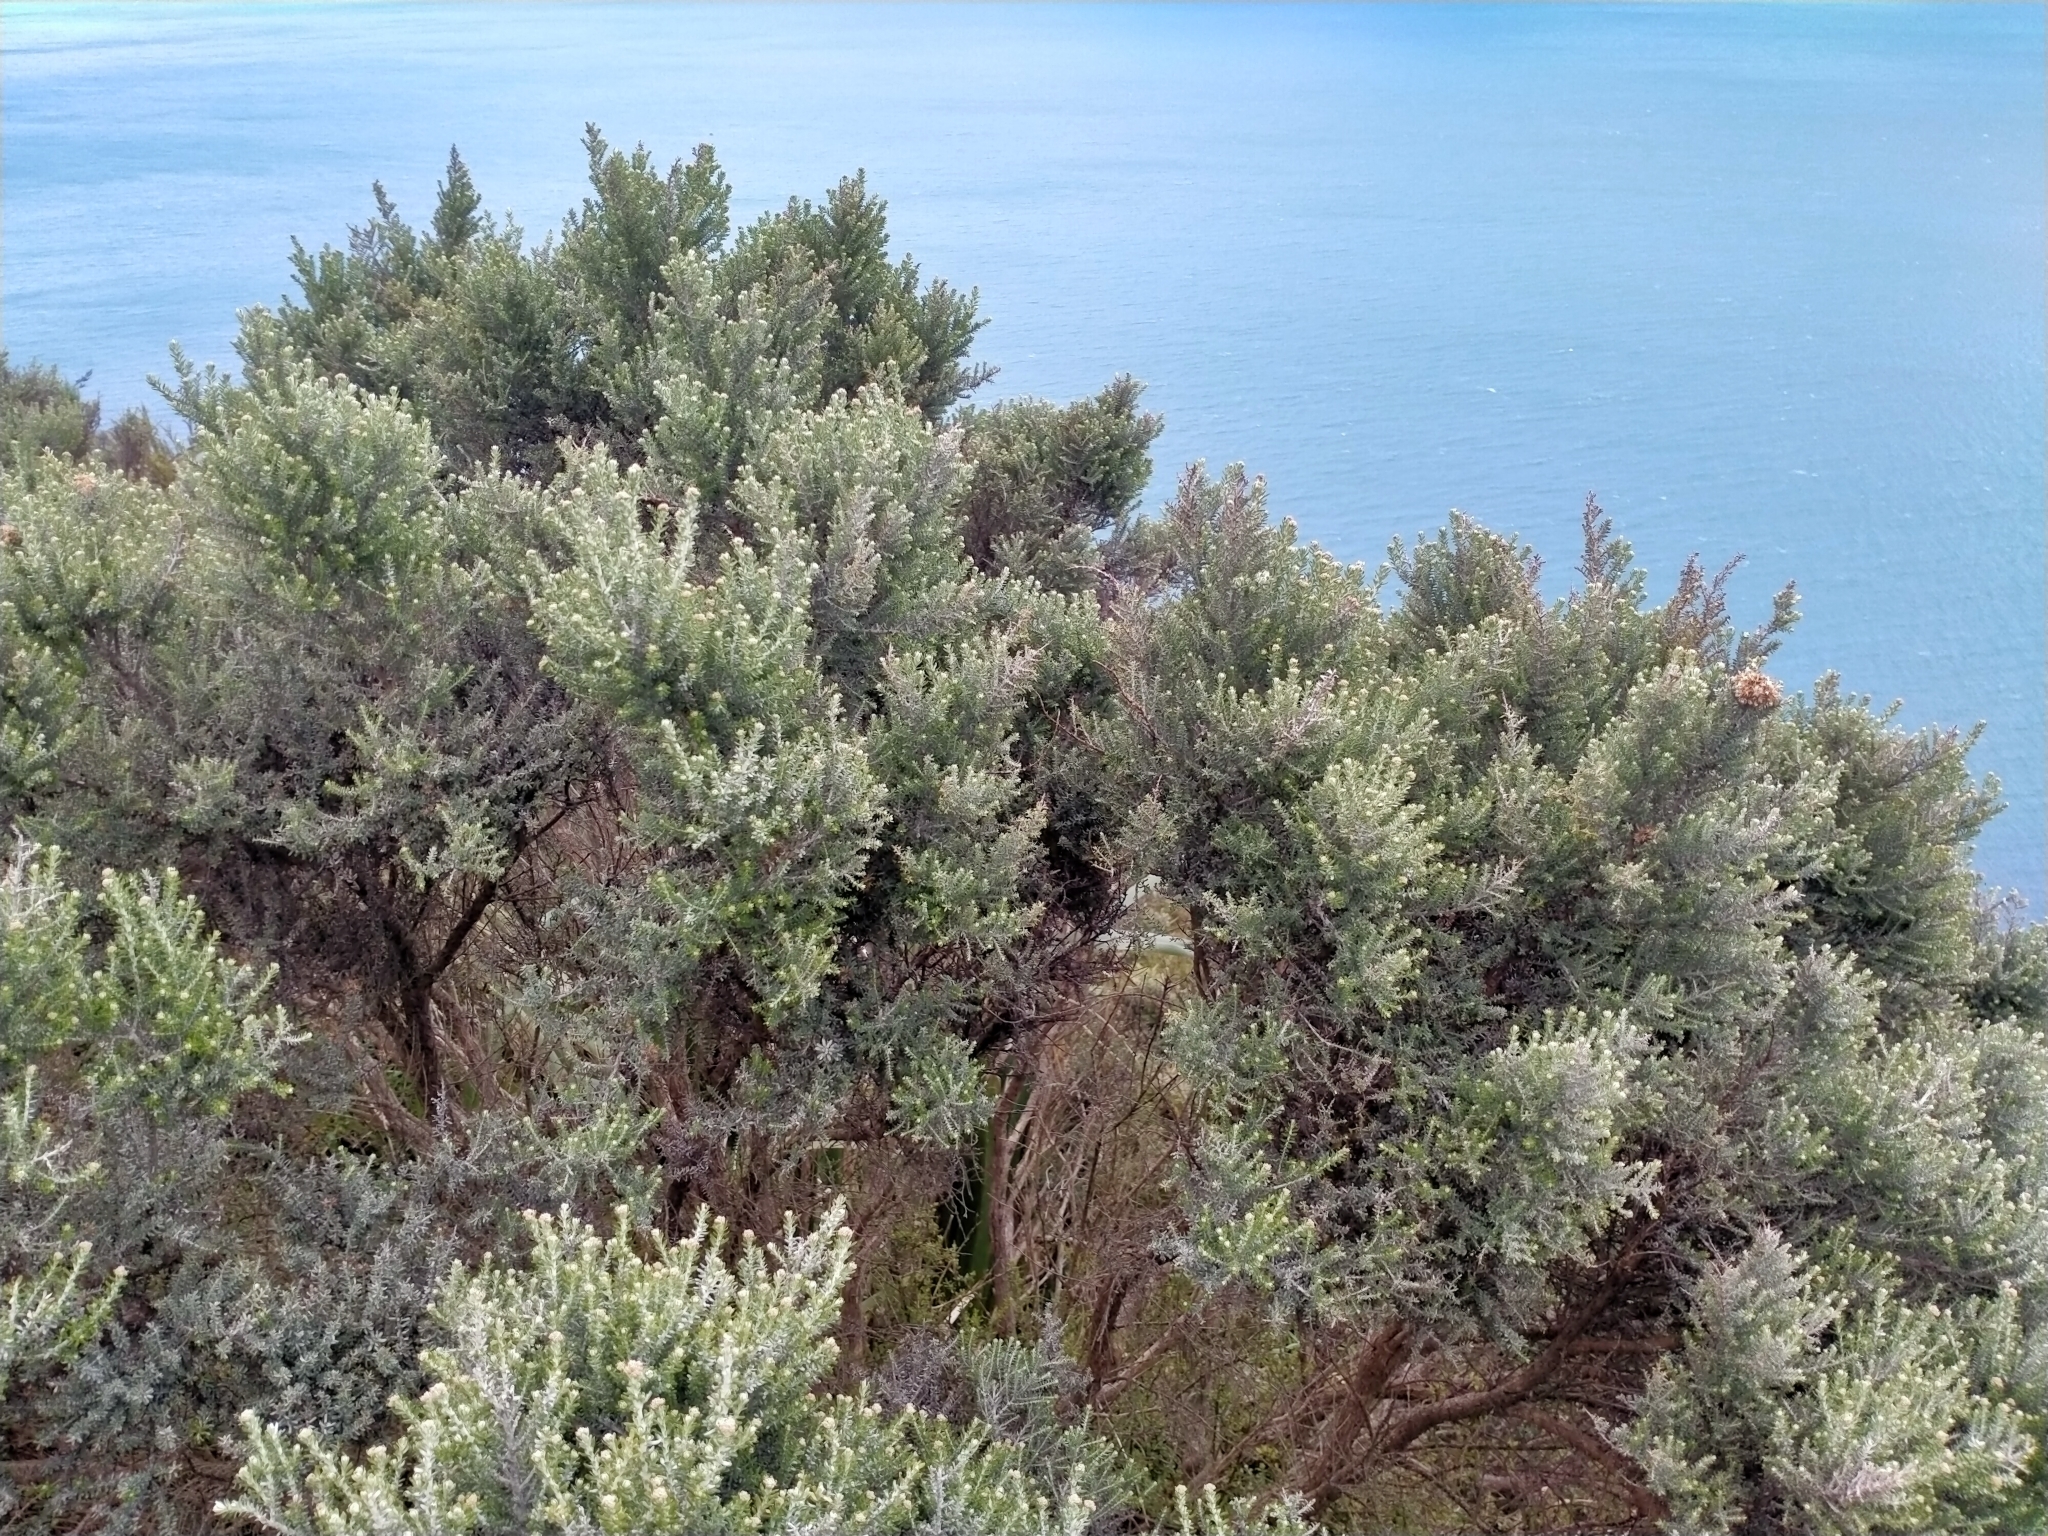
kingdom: Plantae
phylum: Tracheophyta
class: Magnoliopsida
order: Asterales
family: Asteraceae
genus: Ozothamnus
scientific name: Ozothamnus leptophyllus
